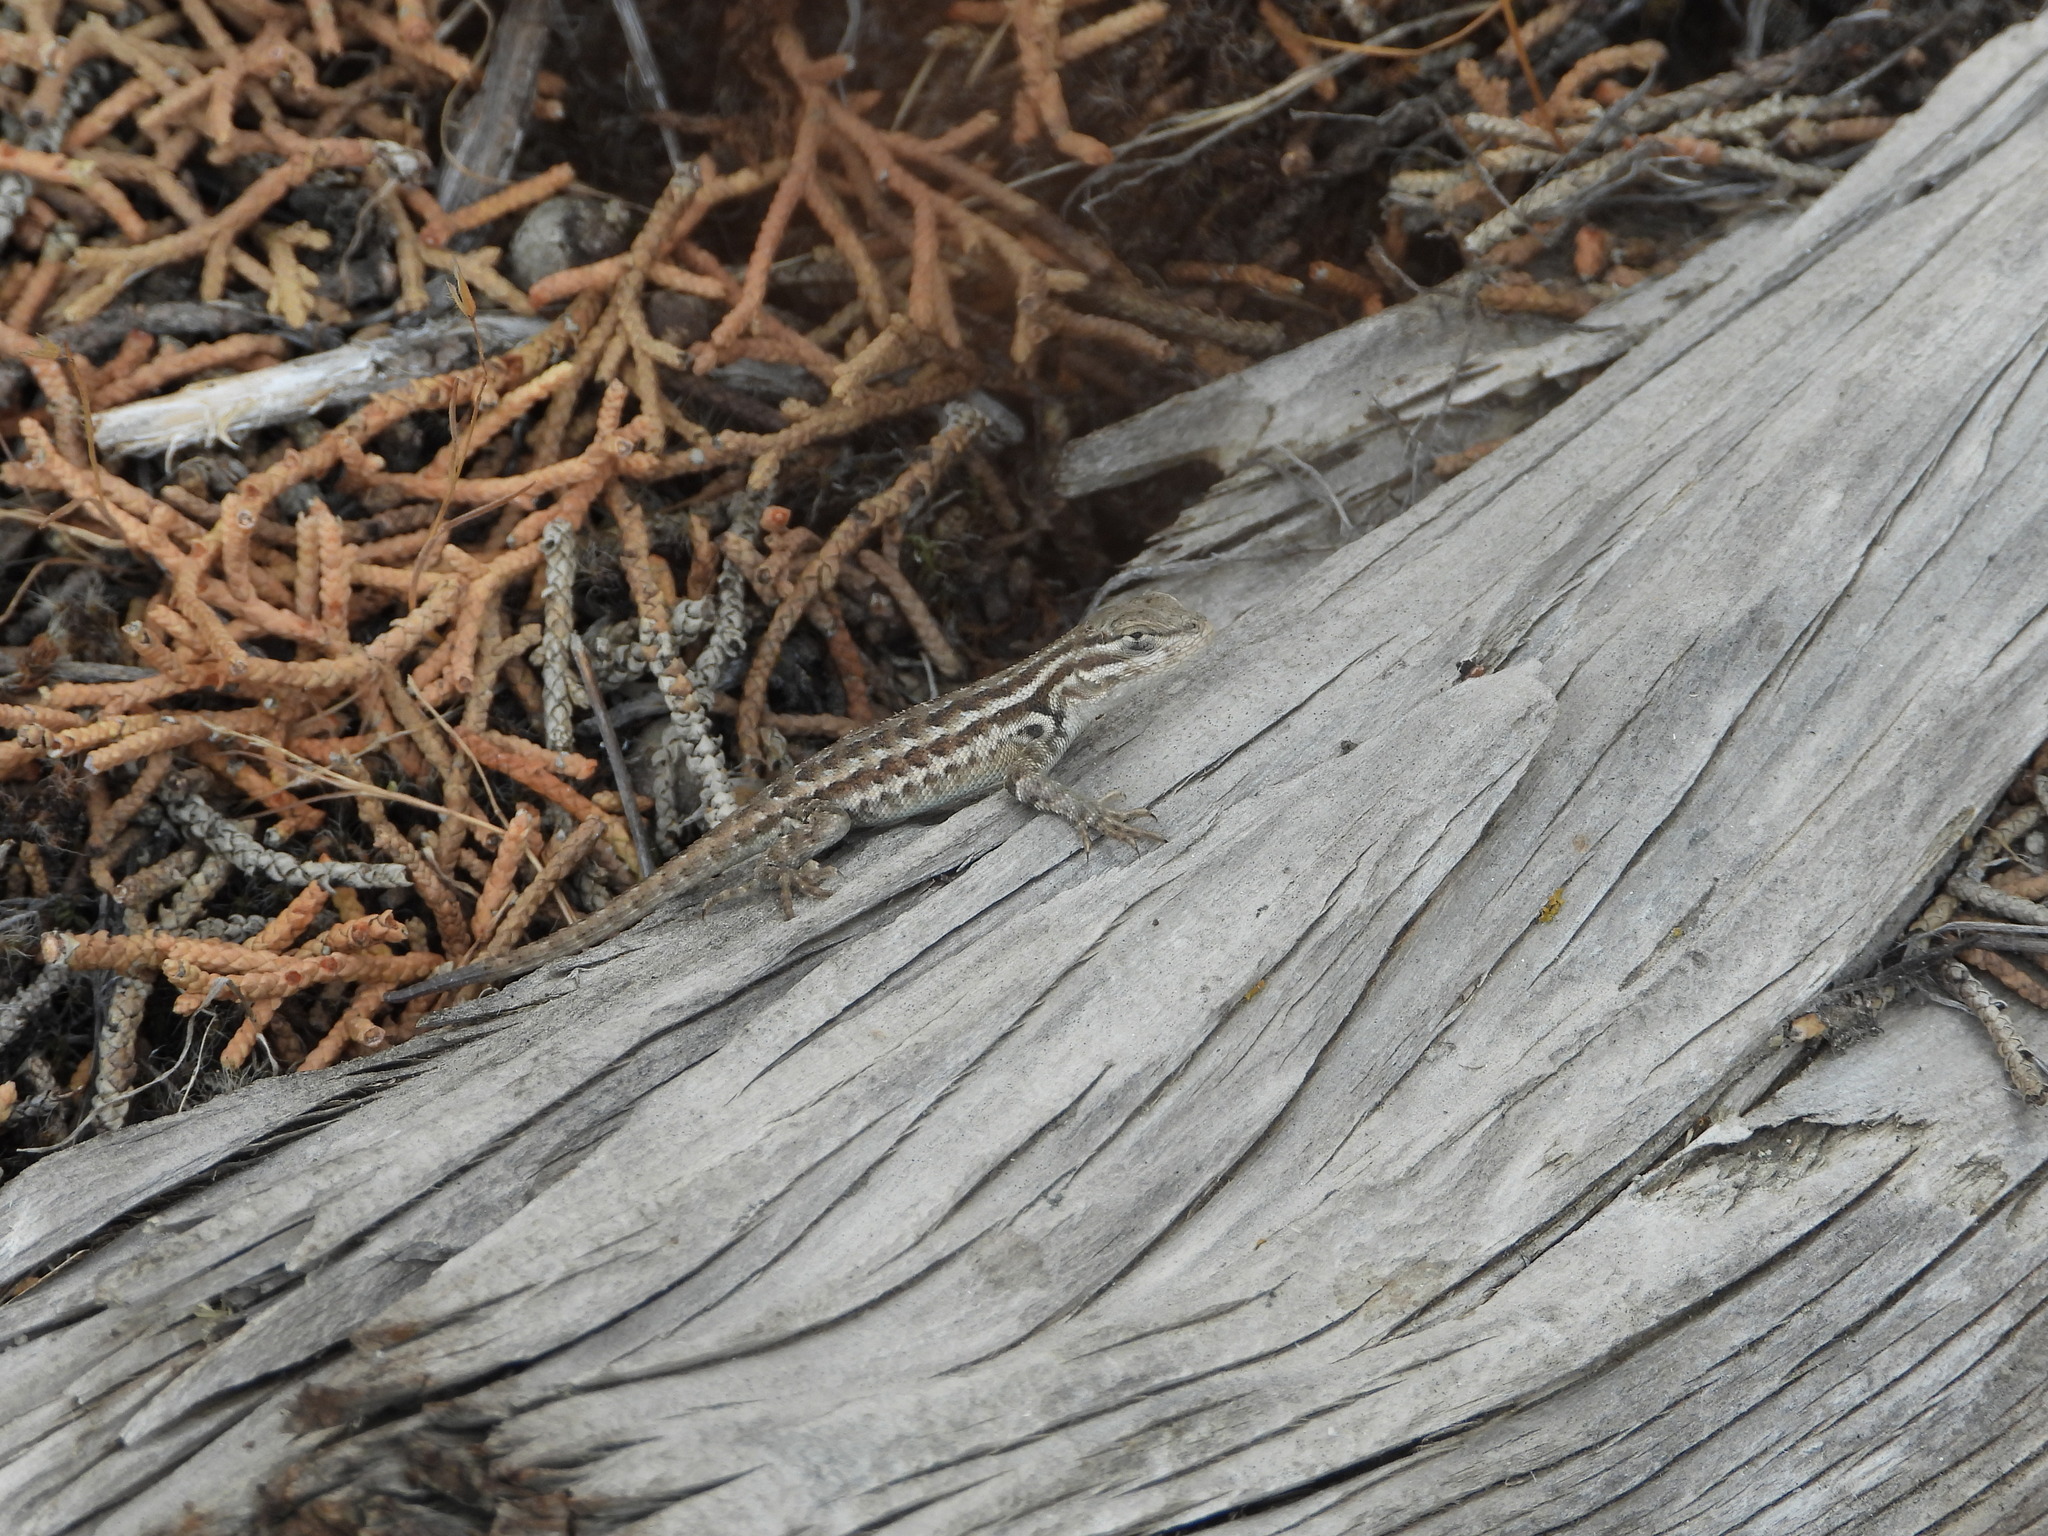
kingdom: Animalia
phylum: Chordata
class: Squamata
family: Phrynosomatidae
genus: Sceloporus
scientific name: Sceloporus graciosus
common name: Sagebrush lizard
